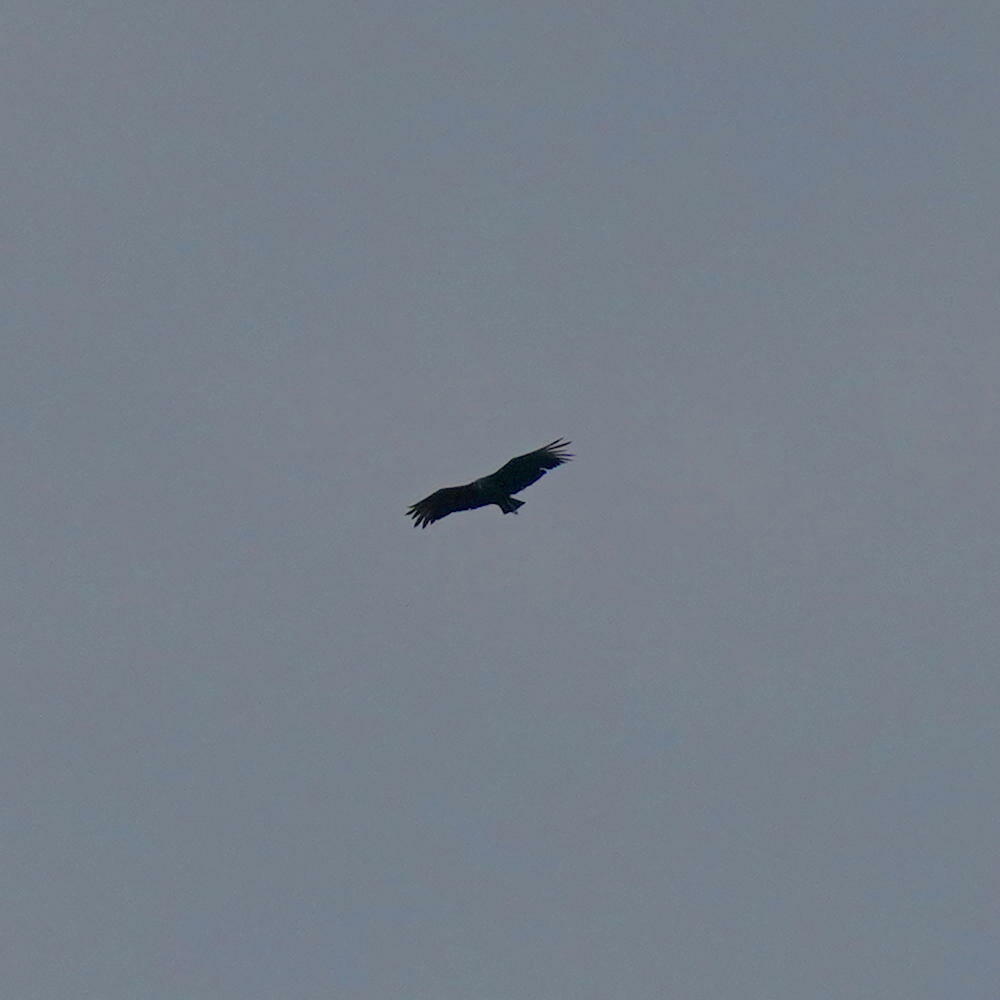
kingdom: Animalia
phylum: Chordata
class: Aves
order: Accipitriformes
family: Cathartidae
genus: Coragyps
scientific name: Coragyps atratus
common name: Black vulture
